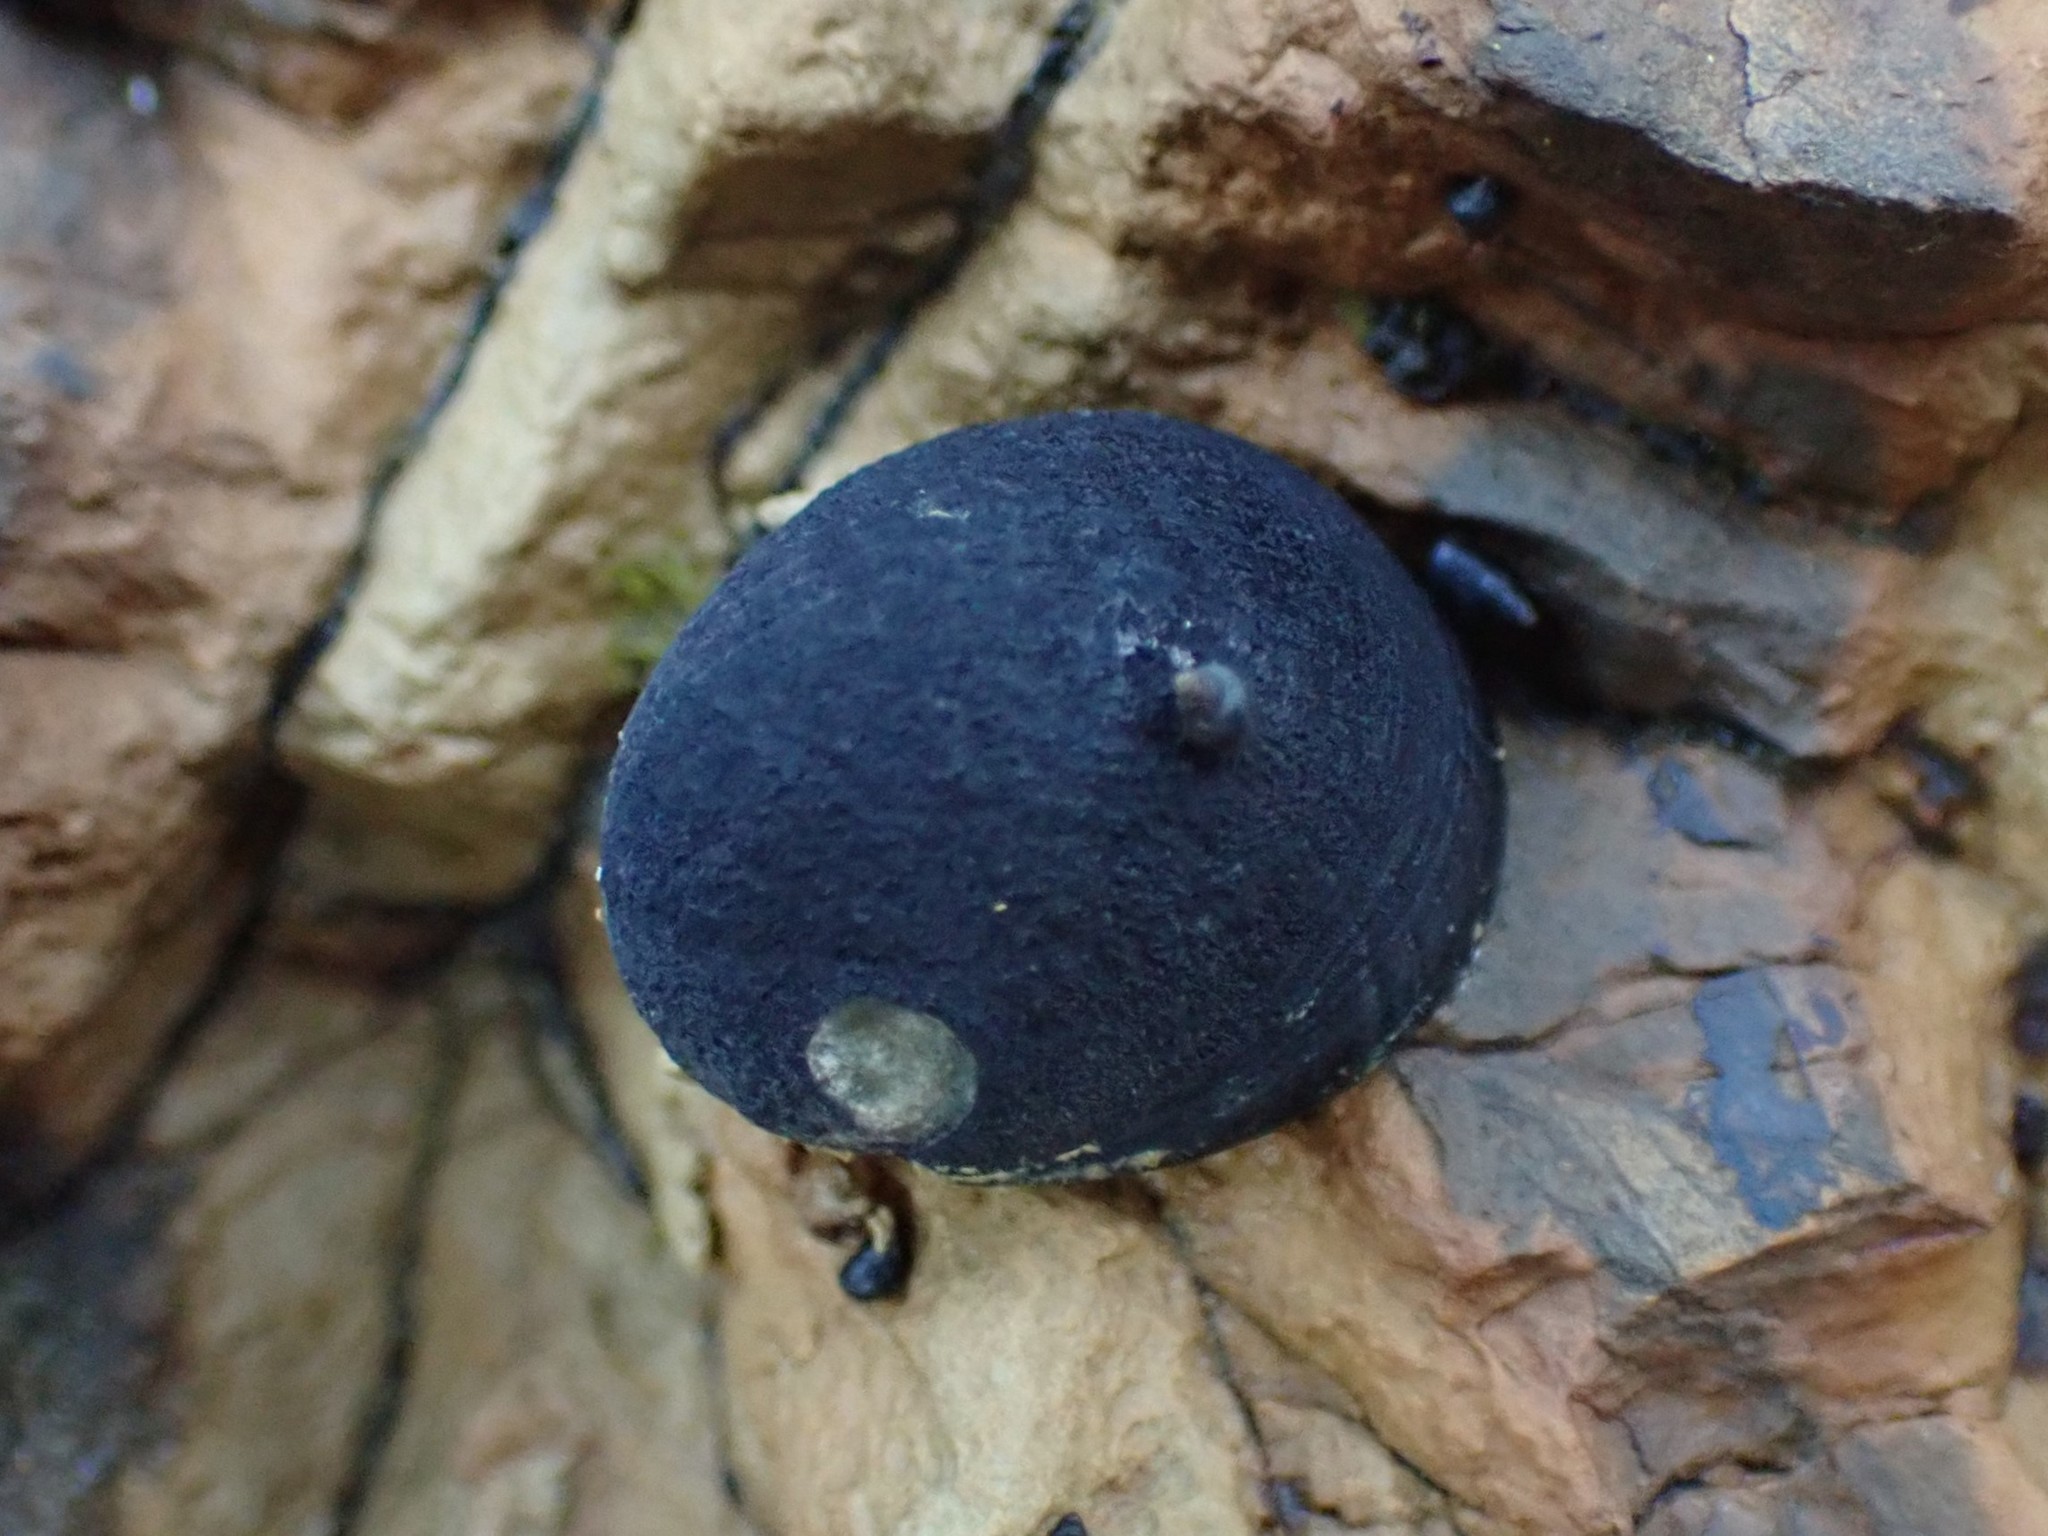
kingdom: Animalia
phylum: Mollusca
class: Gastropoda
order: Cycloneritida
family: Neritidae
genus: Nerita
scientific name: Nerita melanotragus
